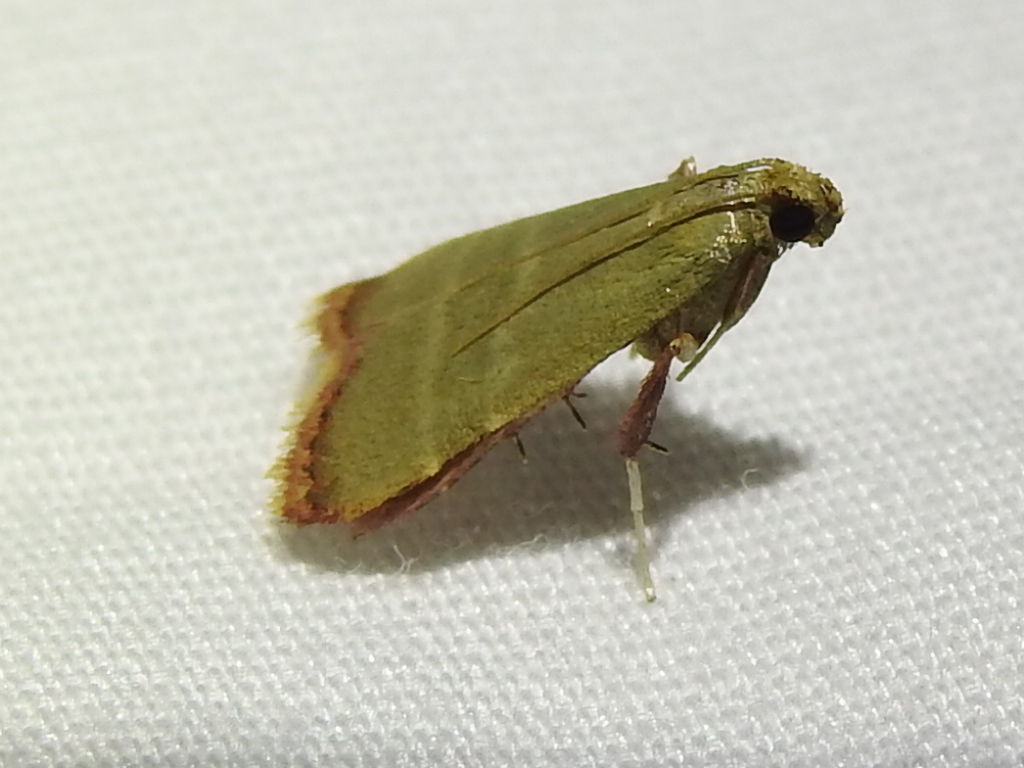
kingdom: Animalia
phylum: Arthropoda
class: Insecta
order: Lepidoptera
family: Pyralidae
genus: Arta
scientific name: Arta olivalis
